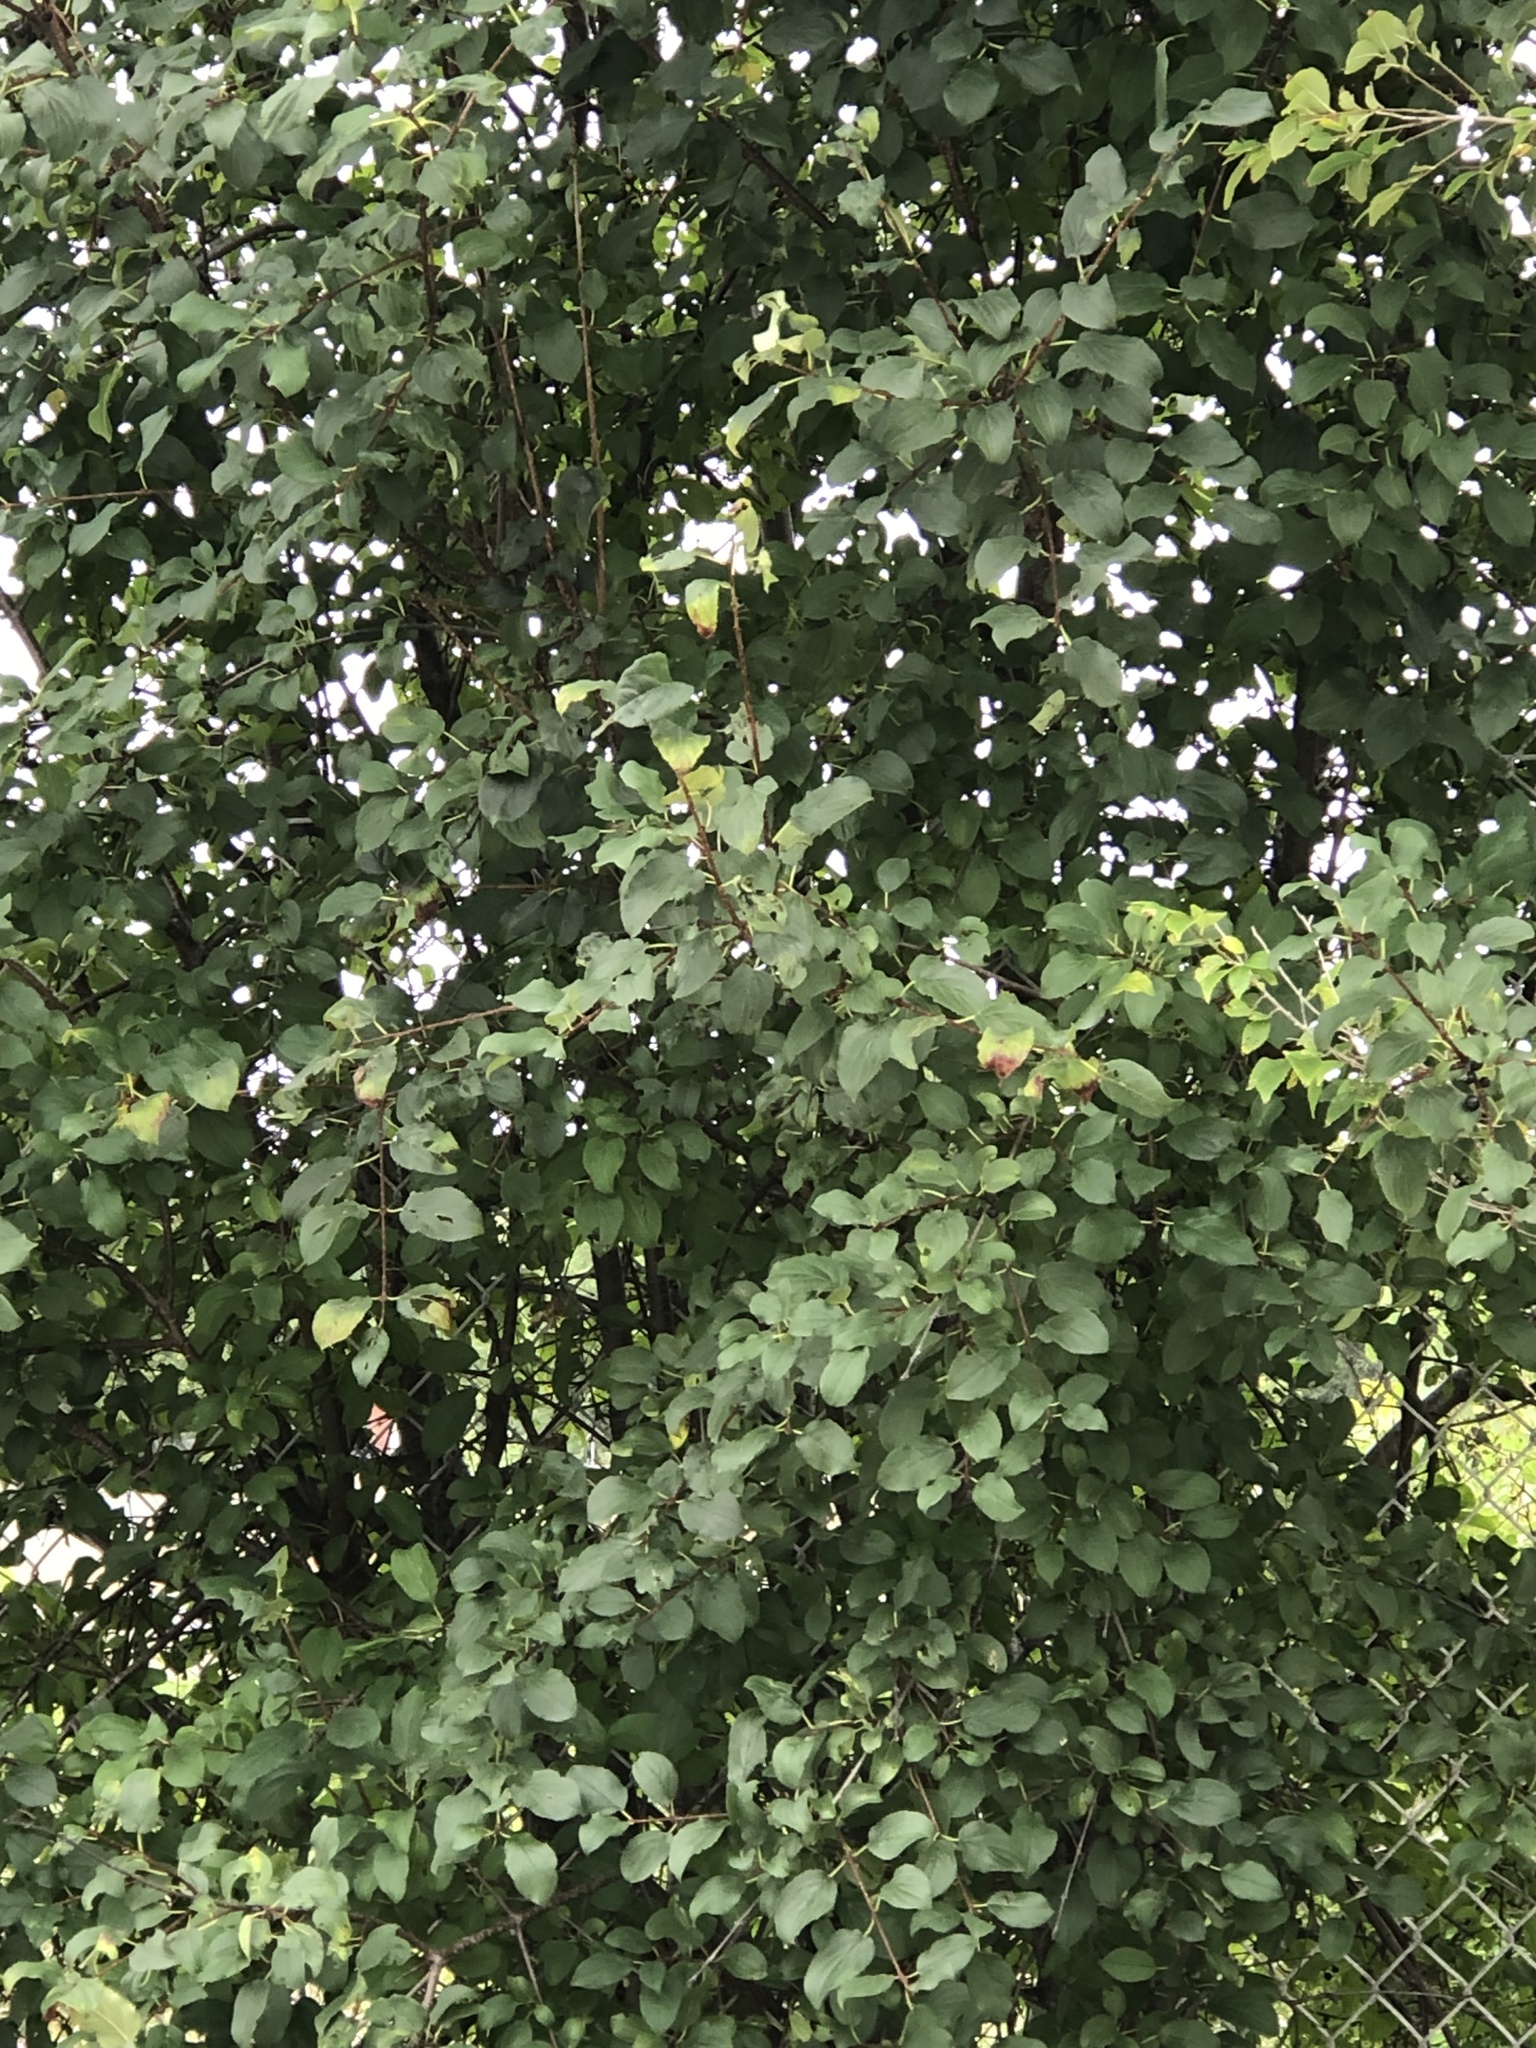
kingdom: Plantae
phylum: Tracheophyta
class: Magnoliopsida
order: Rosales
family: Rhamnaceae
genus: Rhamnus
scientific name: Rhamnus cathartica
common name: Common buckthorn
